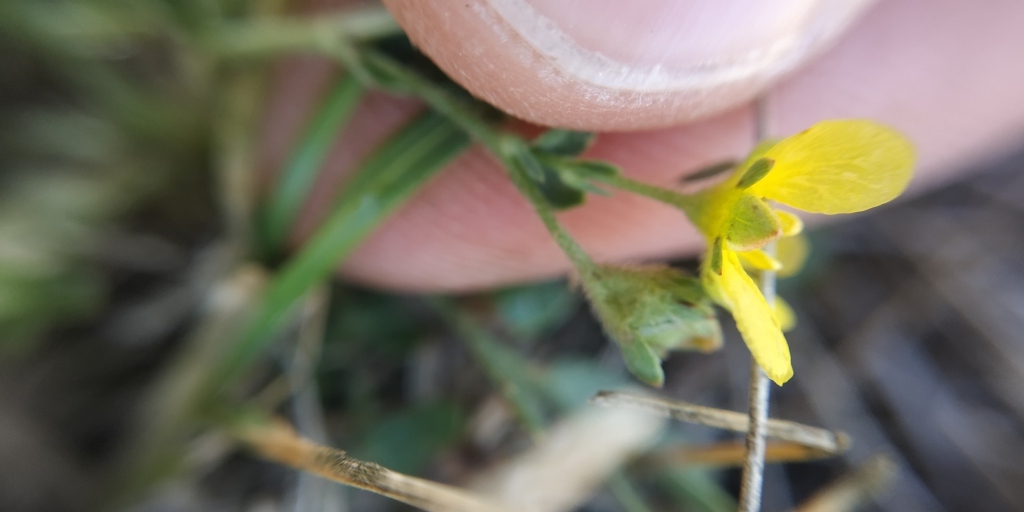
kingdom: Plantae
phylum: Tracheophyta
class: Magnoliopsida
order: Rosales
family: Rosaceae
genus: Sibbaldianthe
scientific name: Sibbaldianthe bifurca
